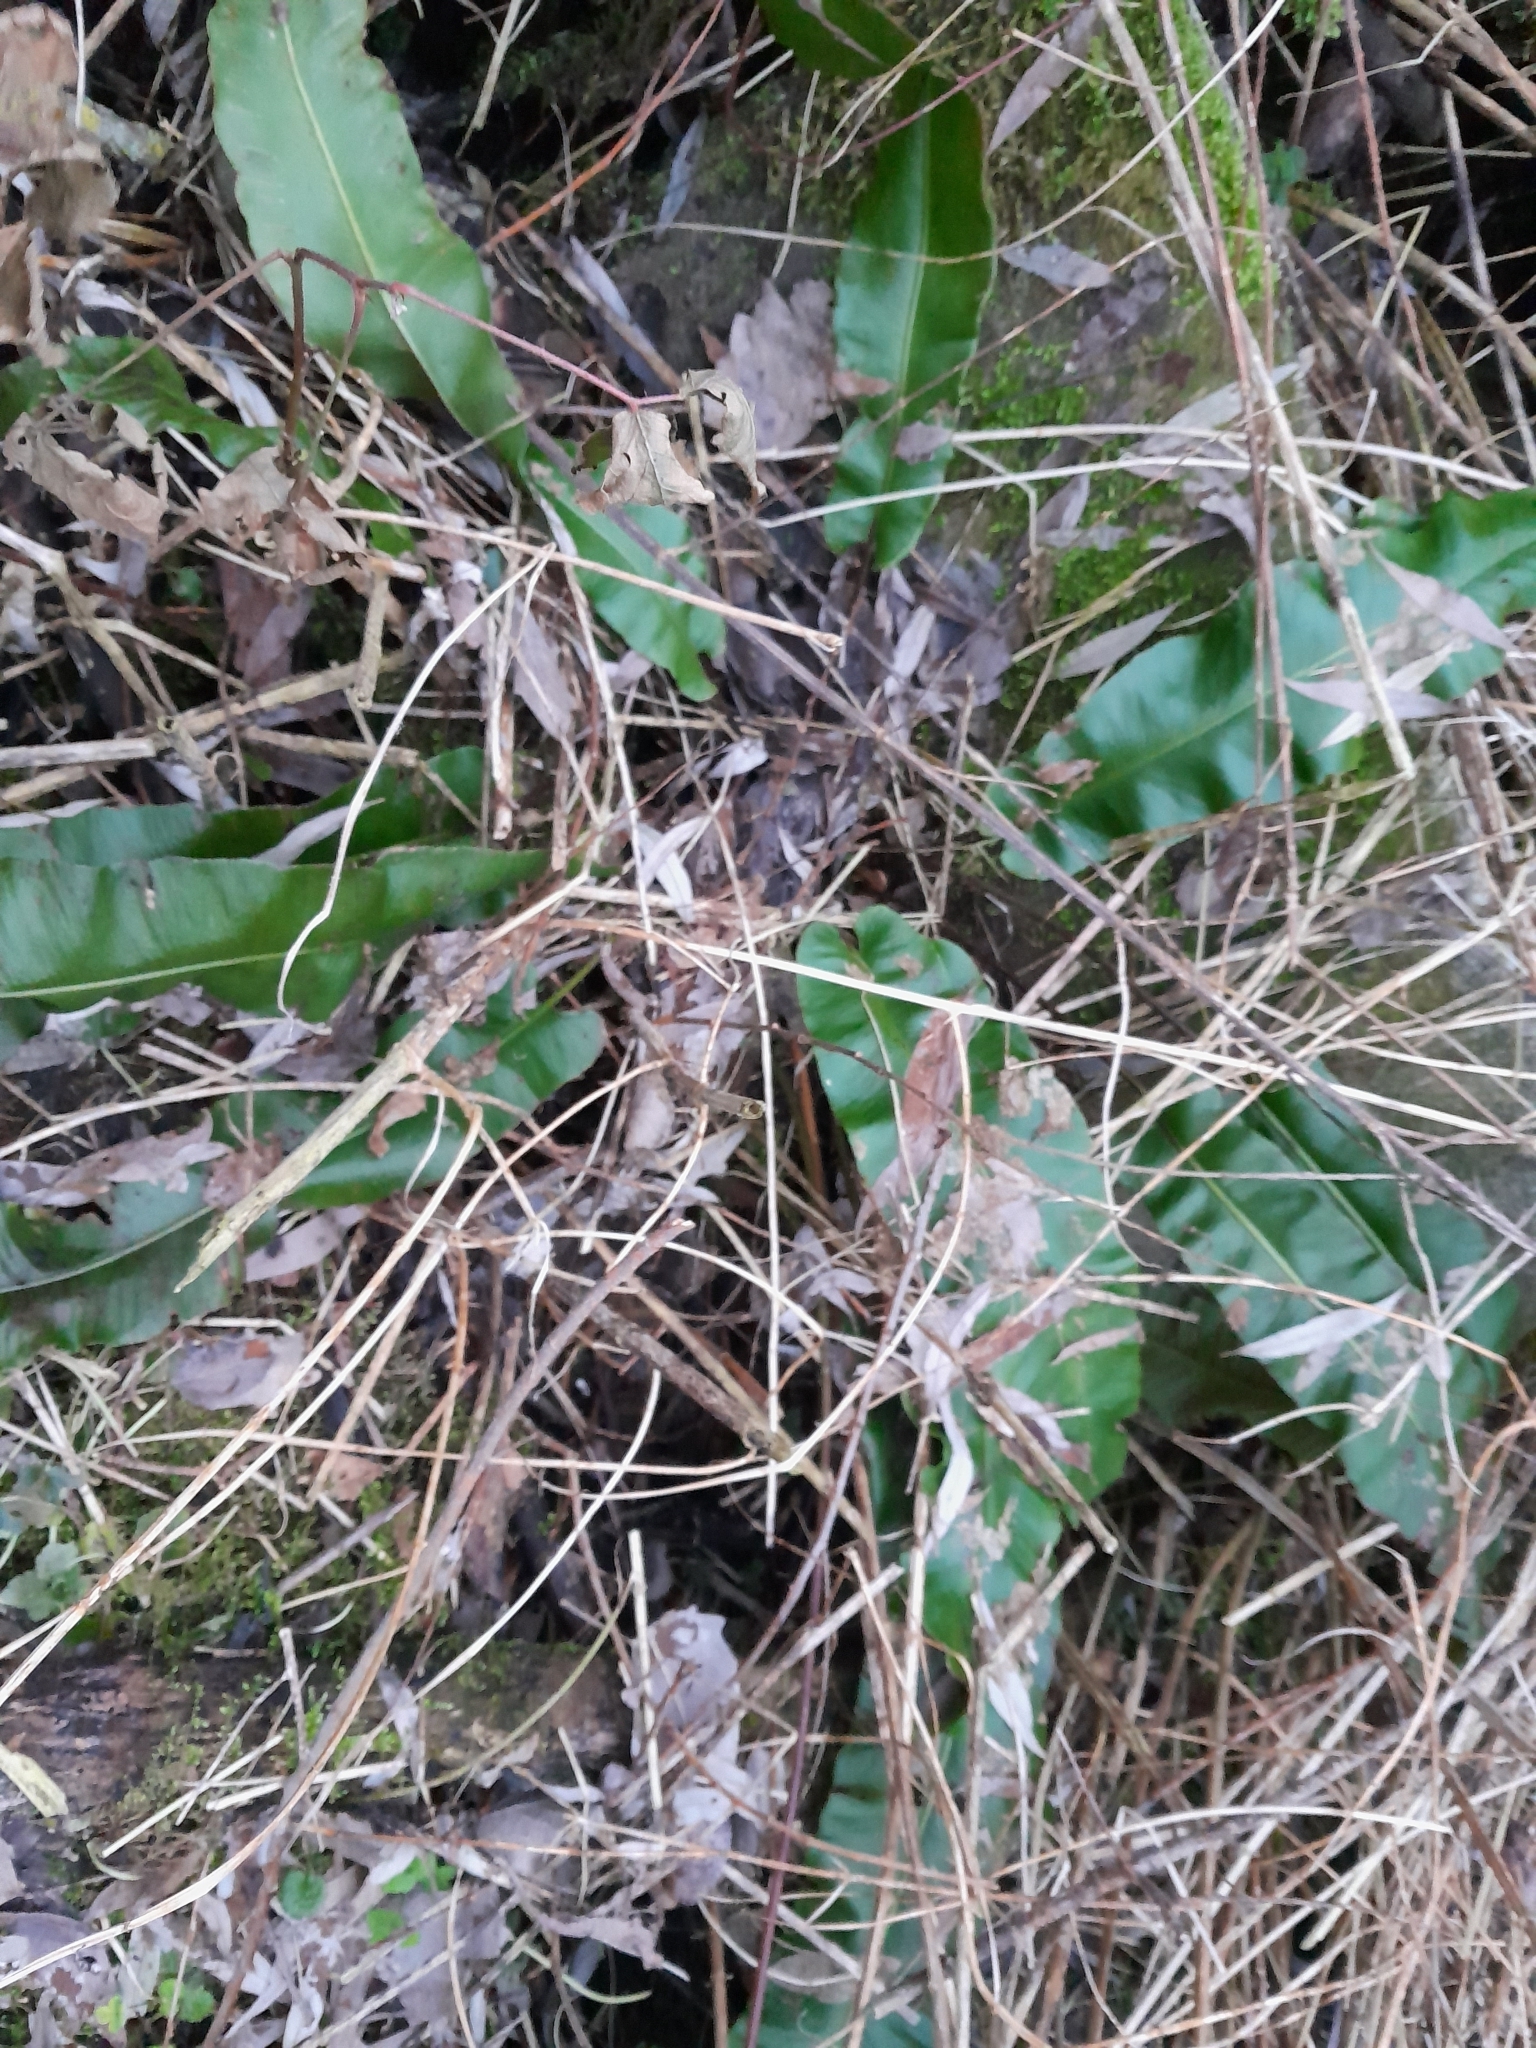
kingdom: Plantae
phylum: Tracheophyta
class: Polypodiopsida
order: Polypodiales
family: Aspleniaceae
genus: Asplenium
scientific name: Asplenium scolopendrium
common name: Hart's-tongue fern
